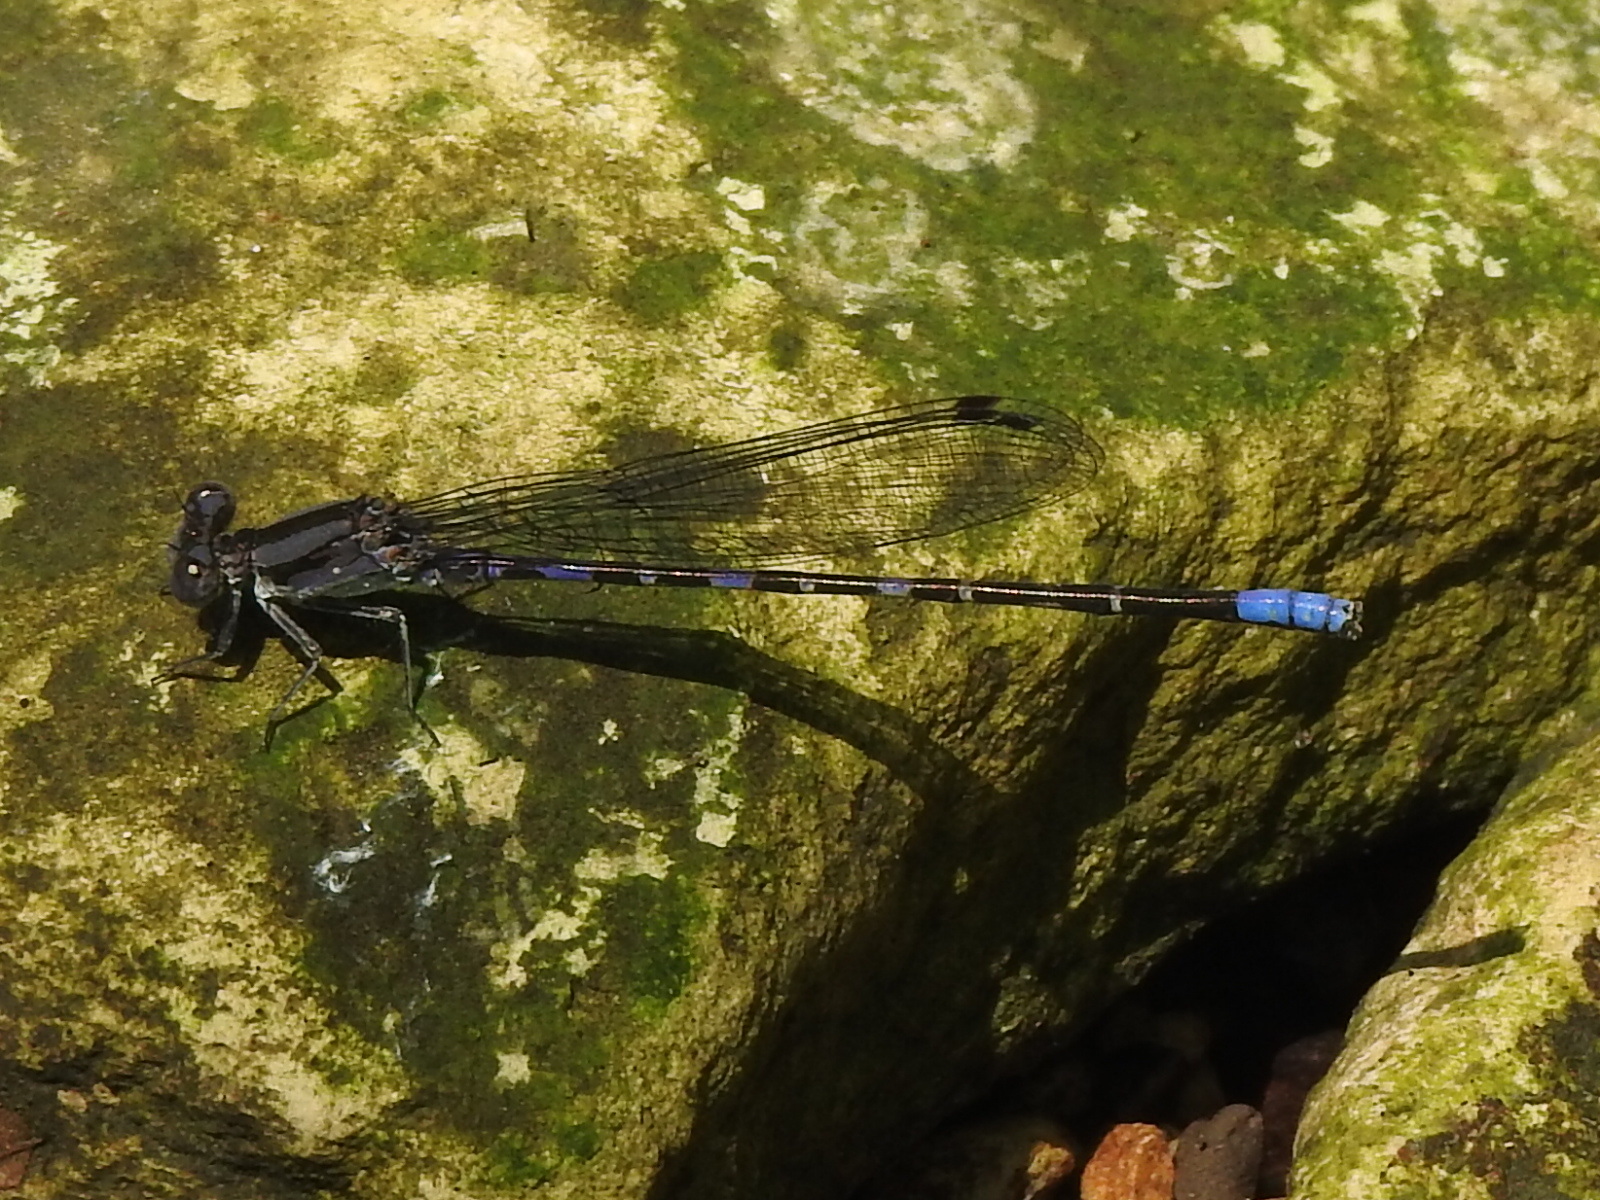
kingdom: Animalia
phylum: Arthropoda
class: Insecta
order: Odonata
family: Coenagrionidae
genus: Argia
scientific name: Argia immunda
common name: Kiowa dancer
